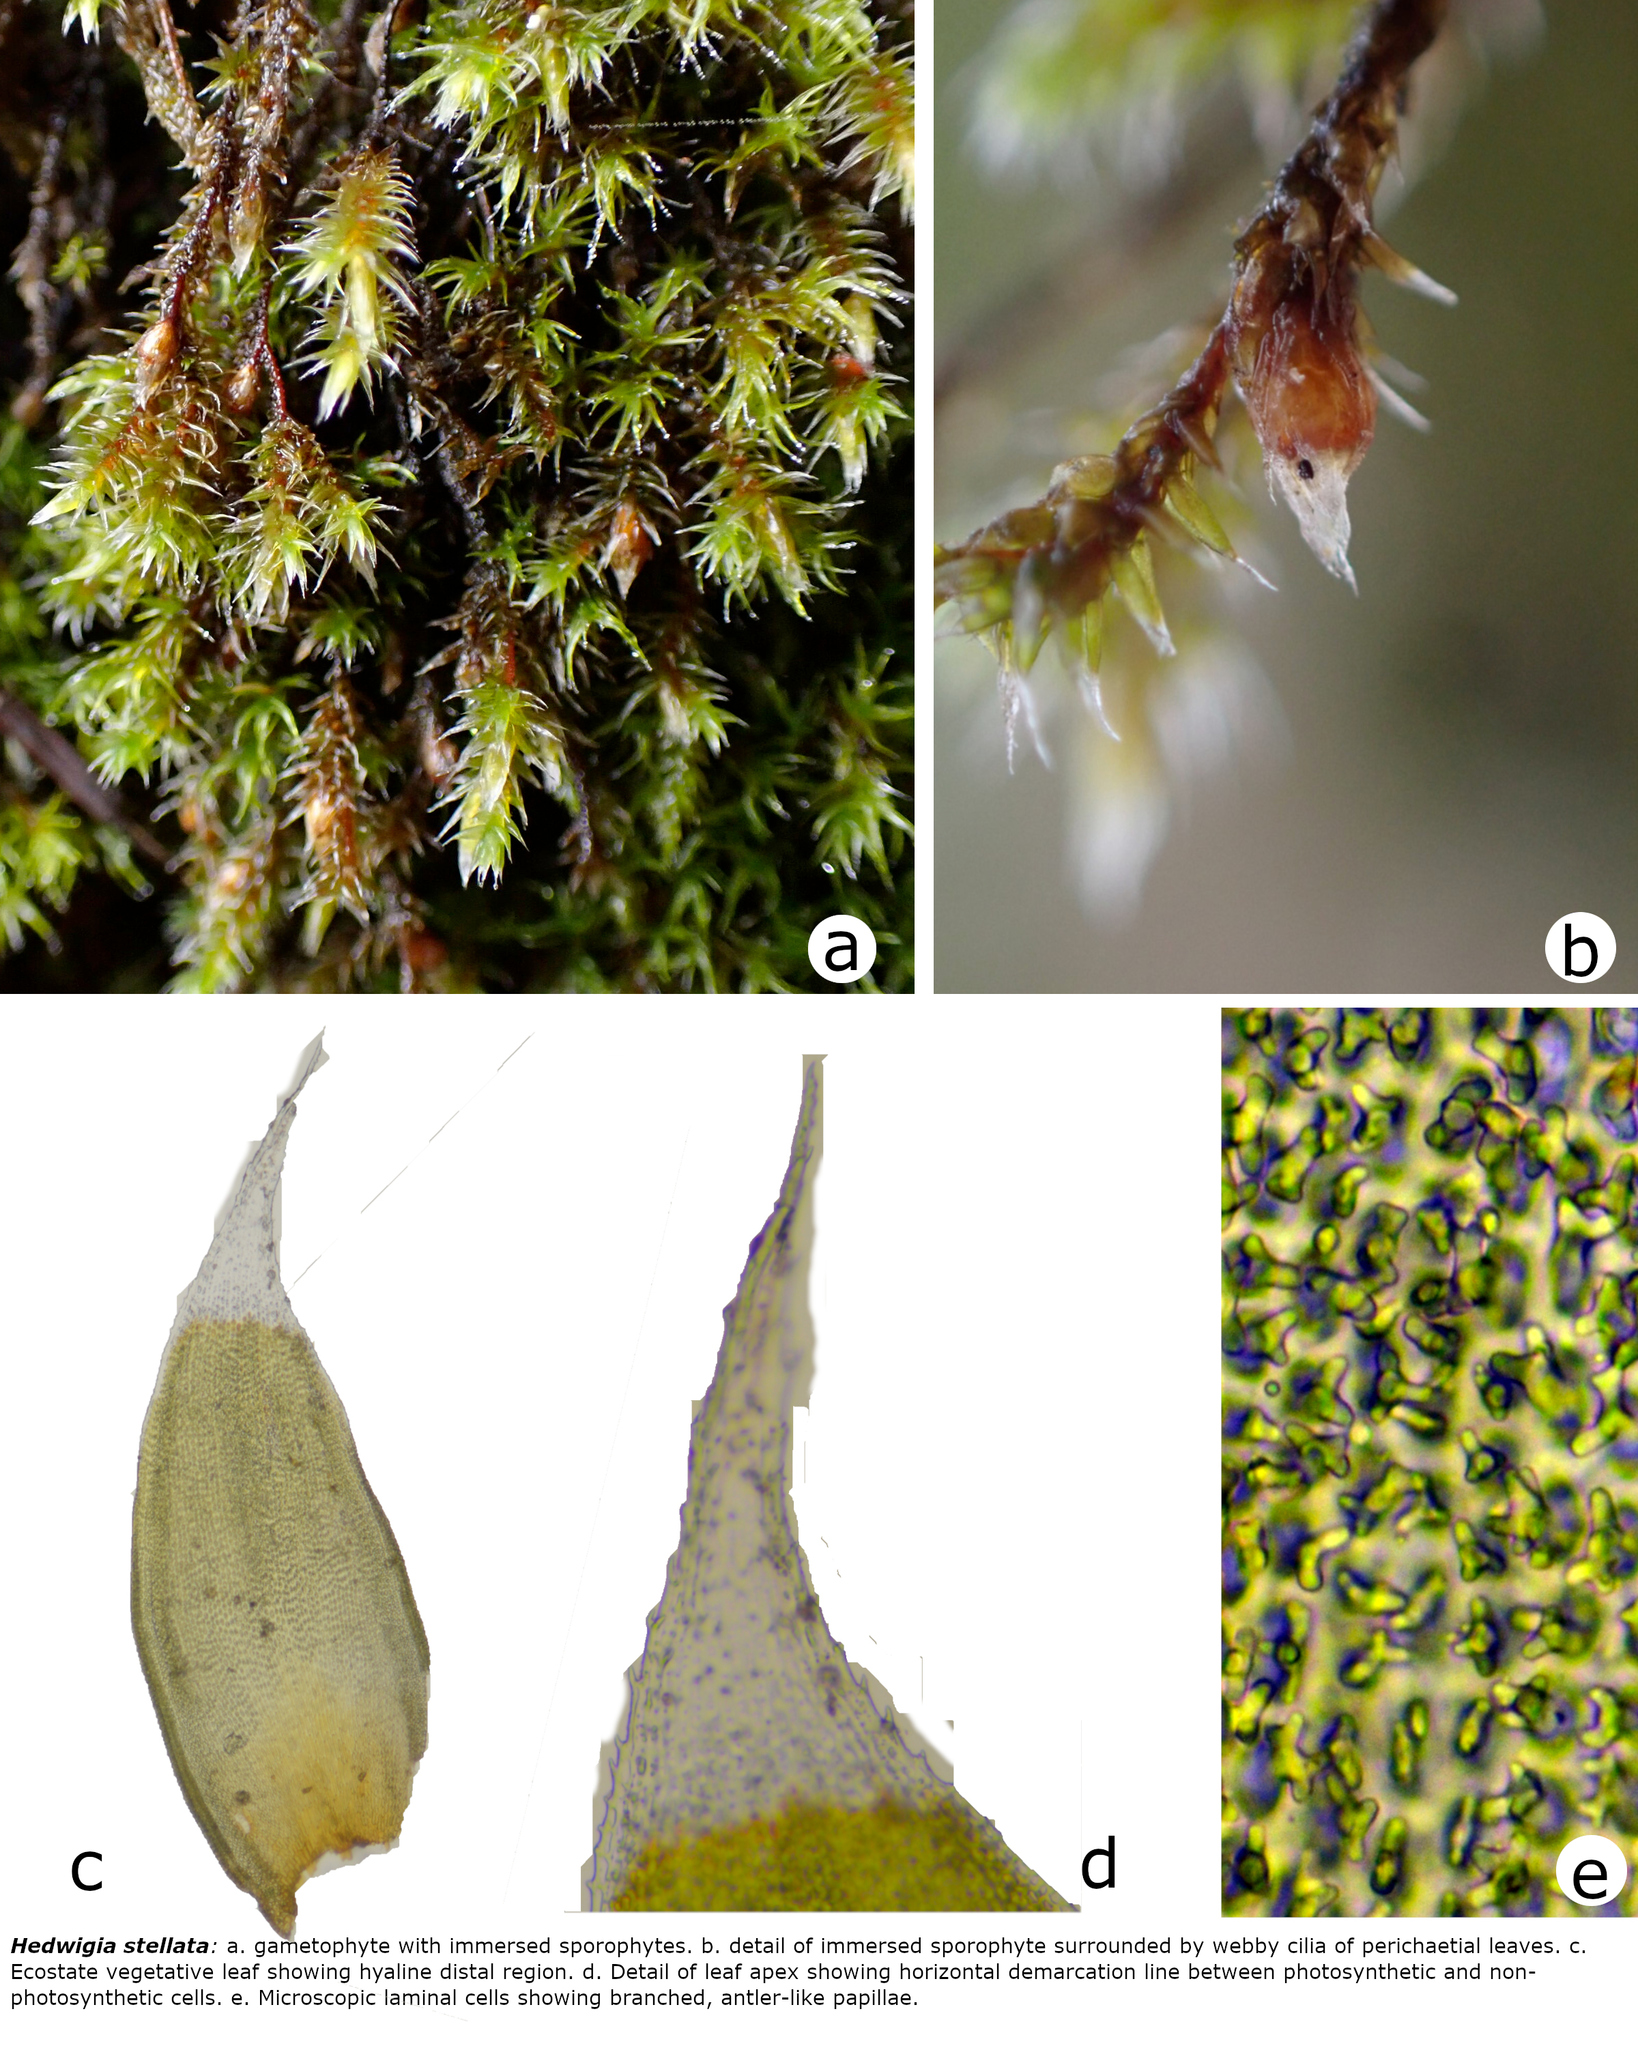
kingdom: Plantae
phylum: Bryophyta
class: Bryopsida
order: Hedwigiales
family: Hedwigiaceae
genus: Hedwigia
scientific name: Hedwigia stellata
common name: Starry hoar-moss
